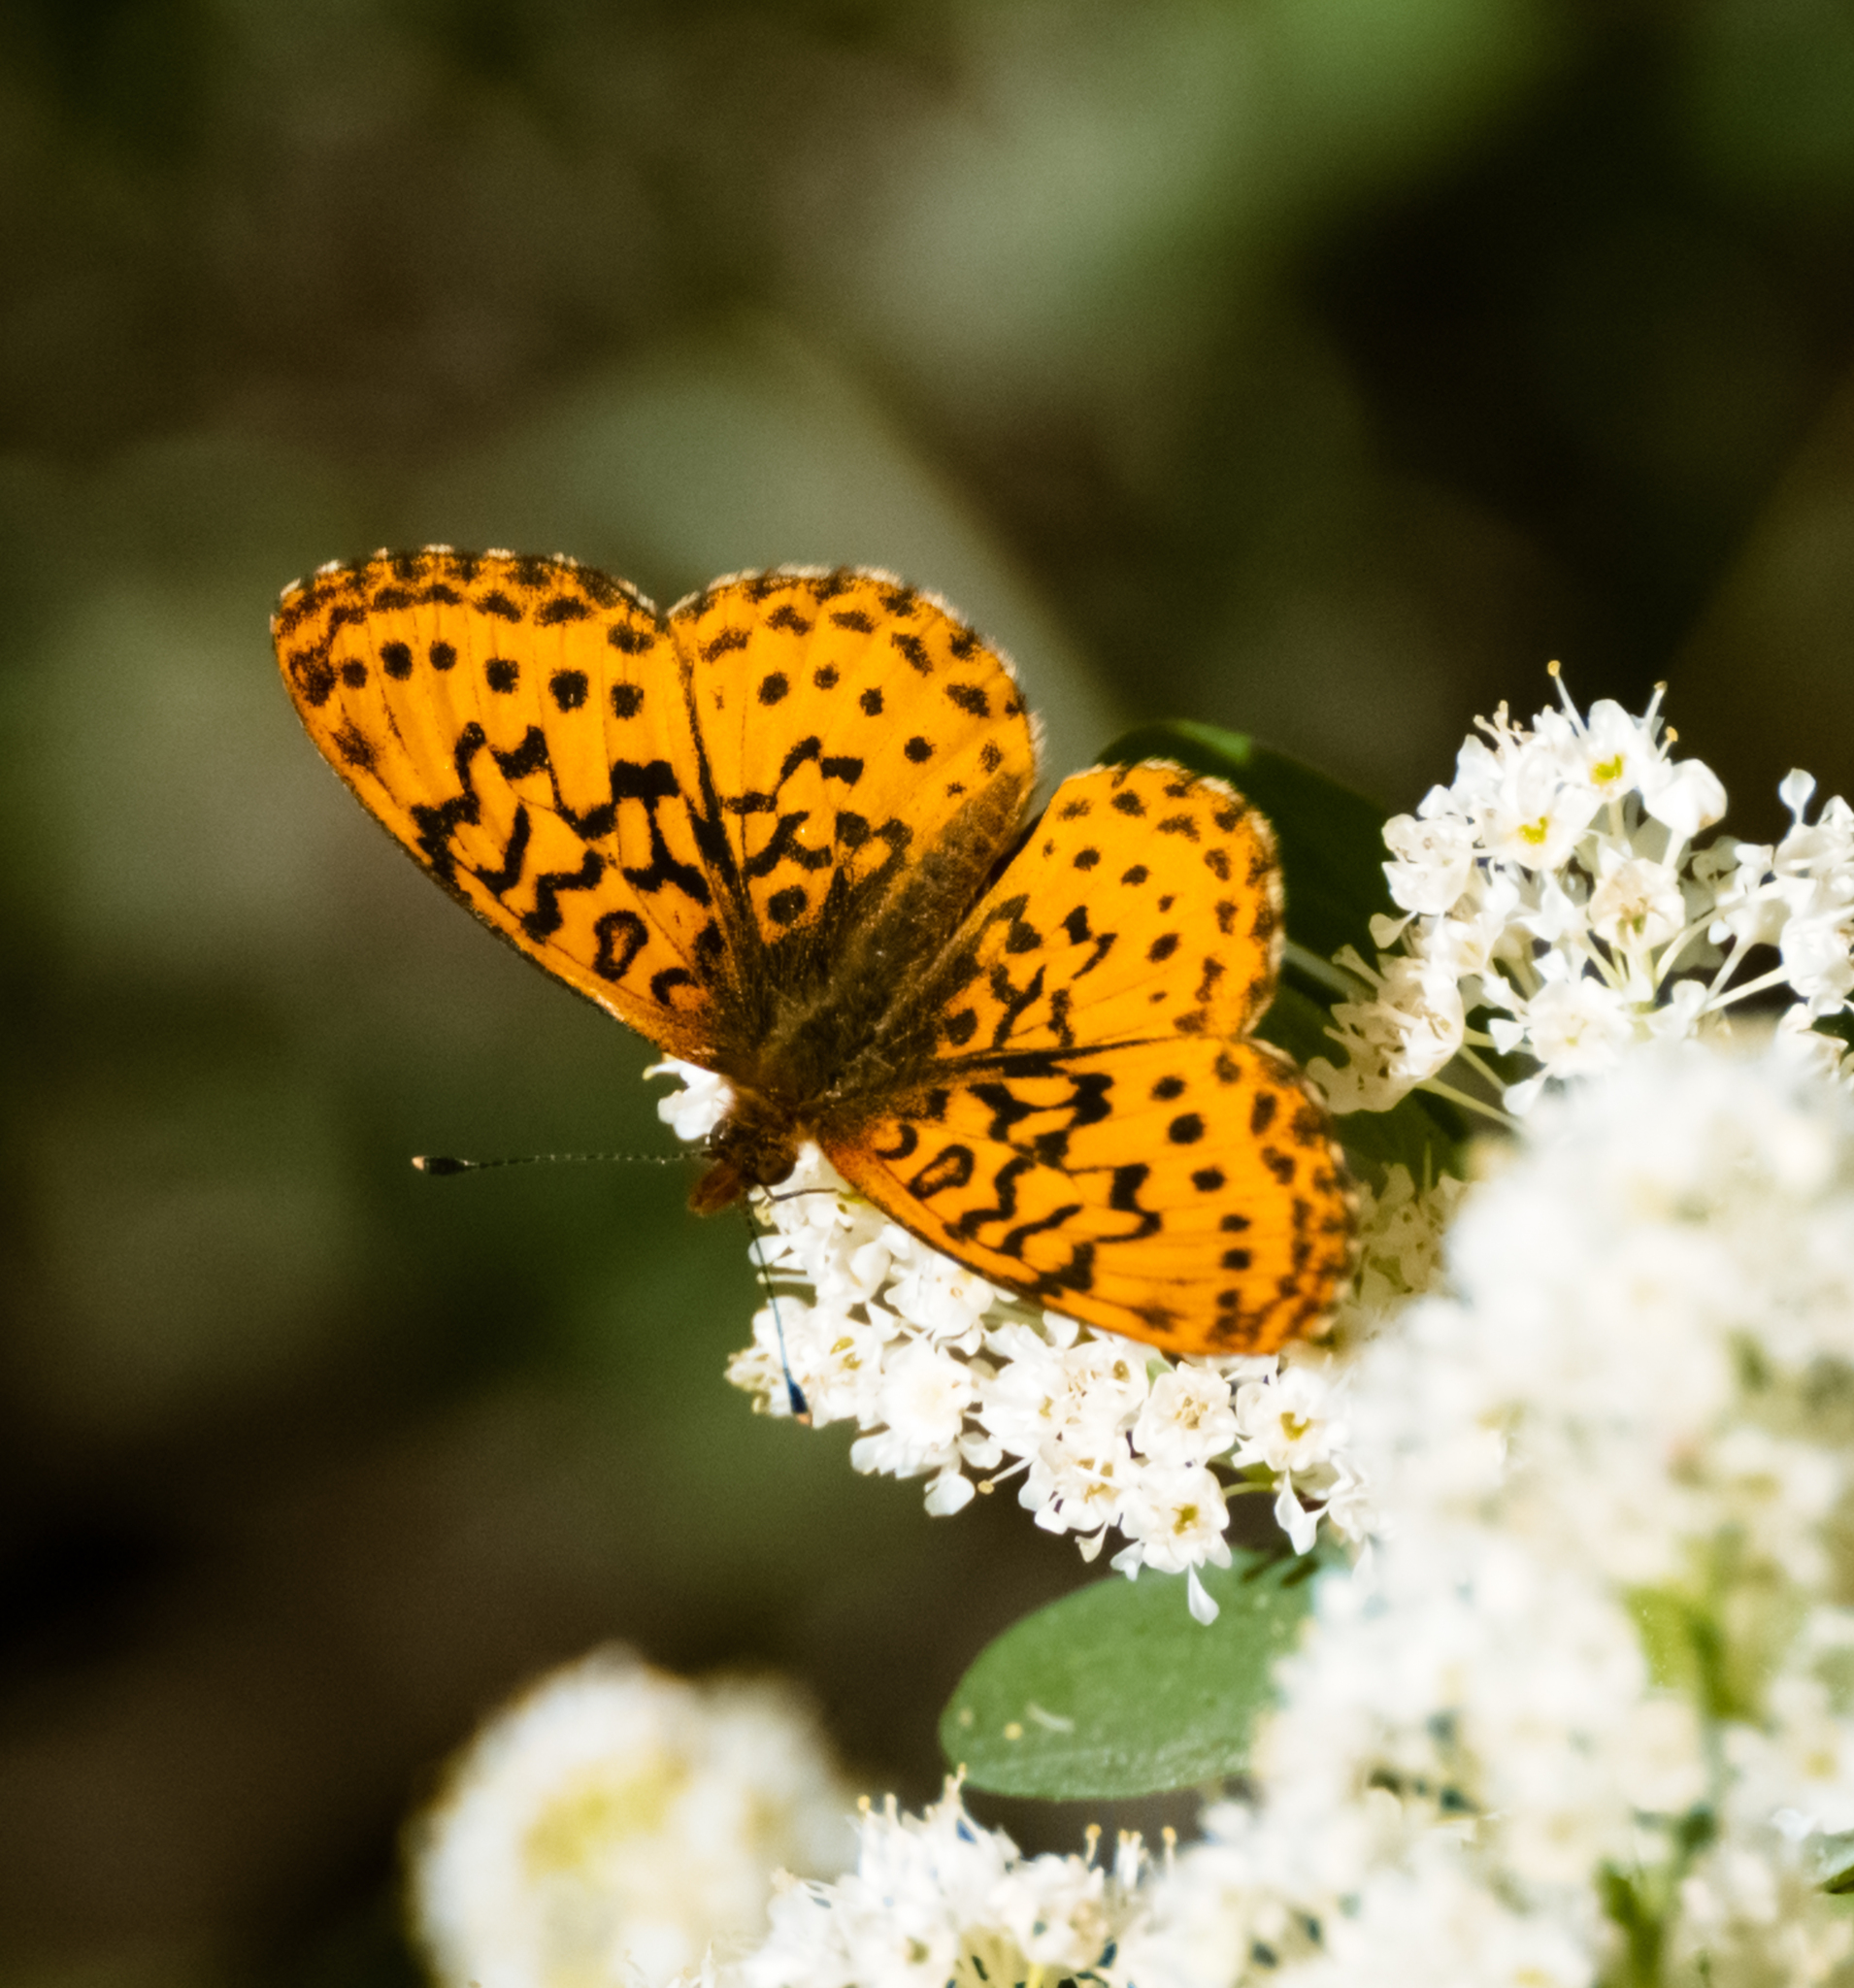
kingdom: Animalia
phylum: Arthropoda
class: Insecta
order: Lepidoptera
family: Nymphalidae
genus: Boloria
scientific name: Boloria epithore
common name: Pacific fritillary
